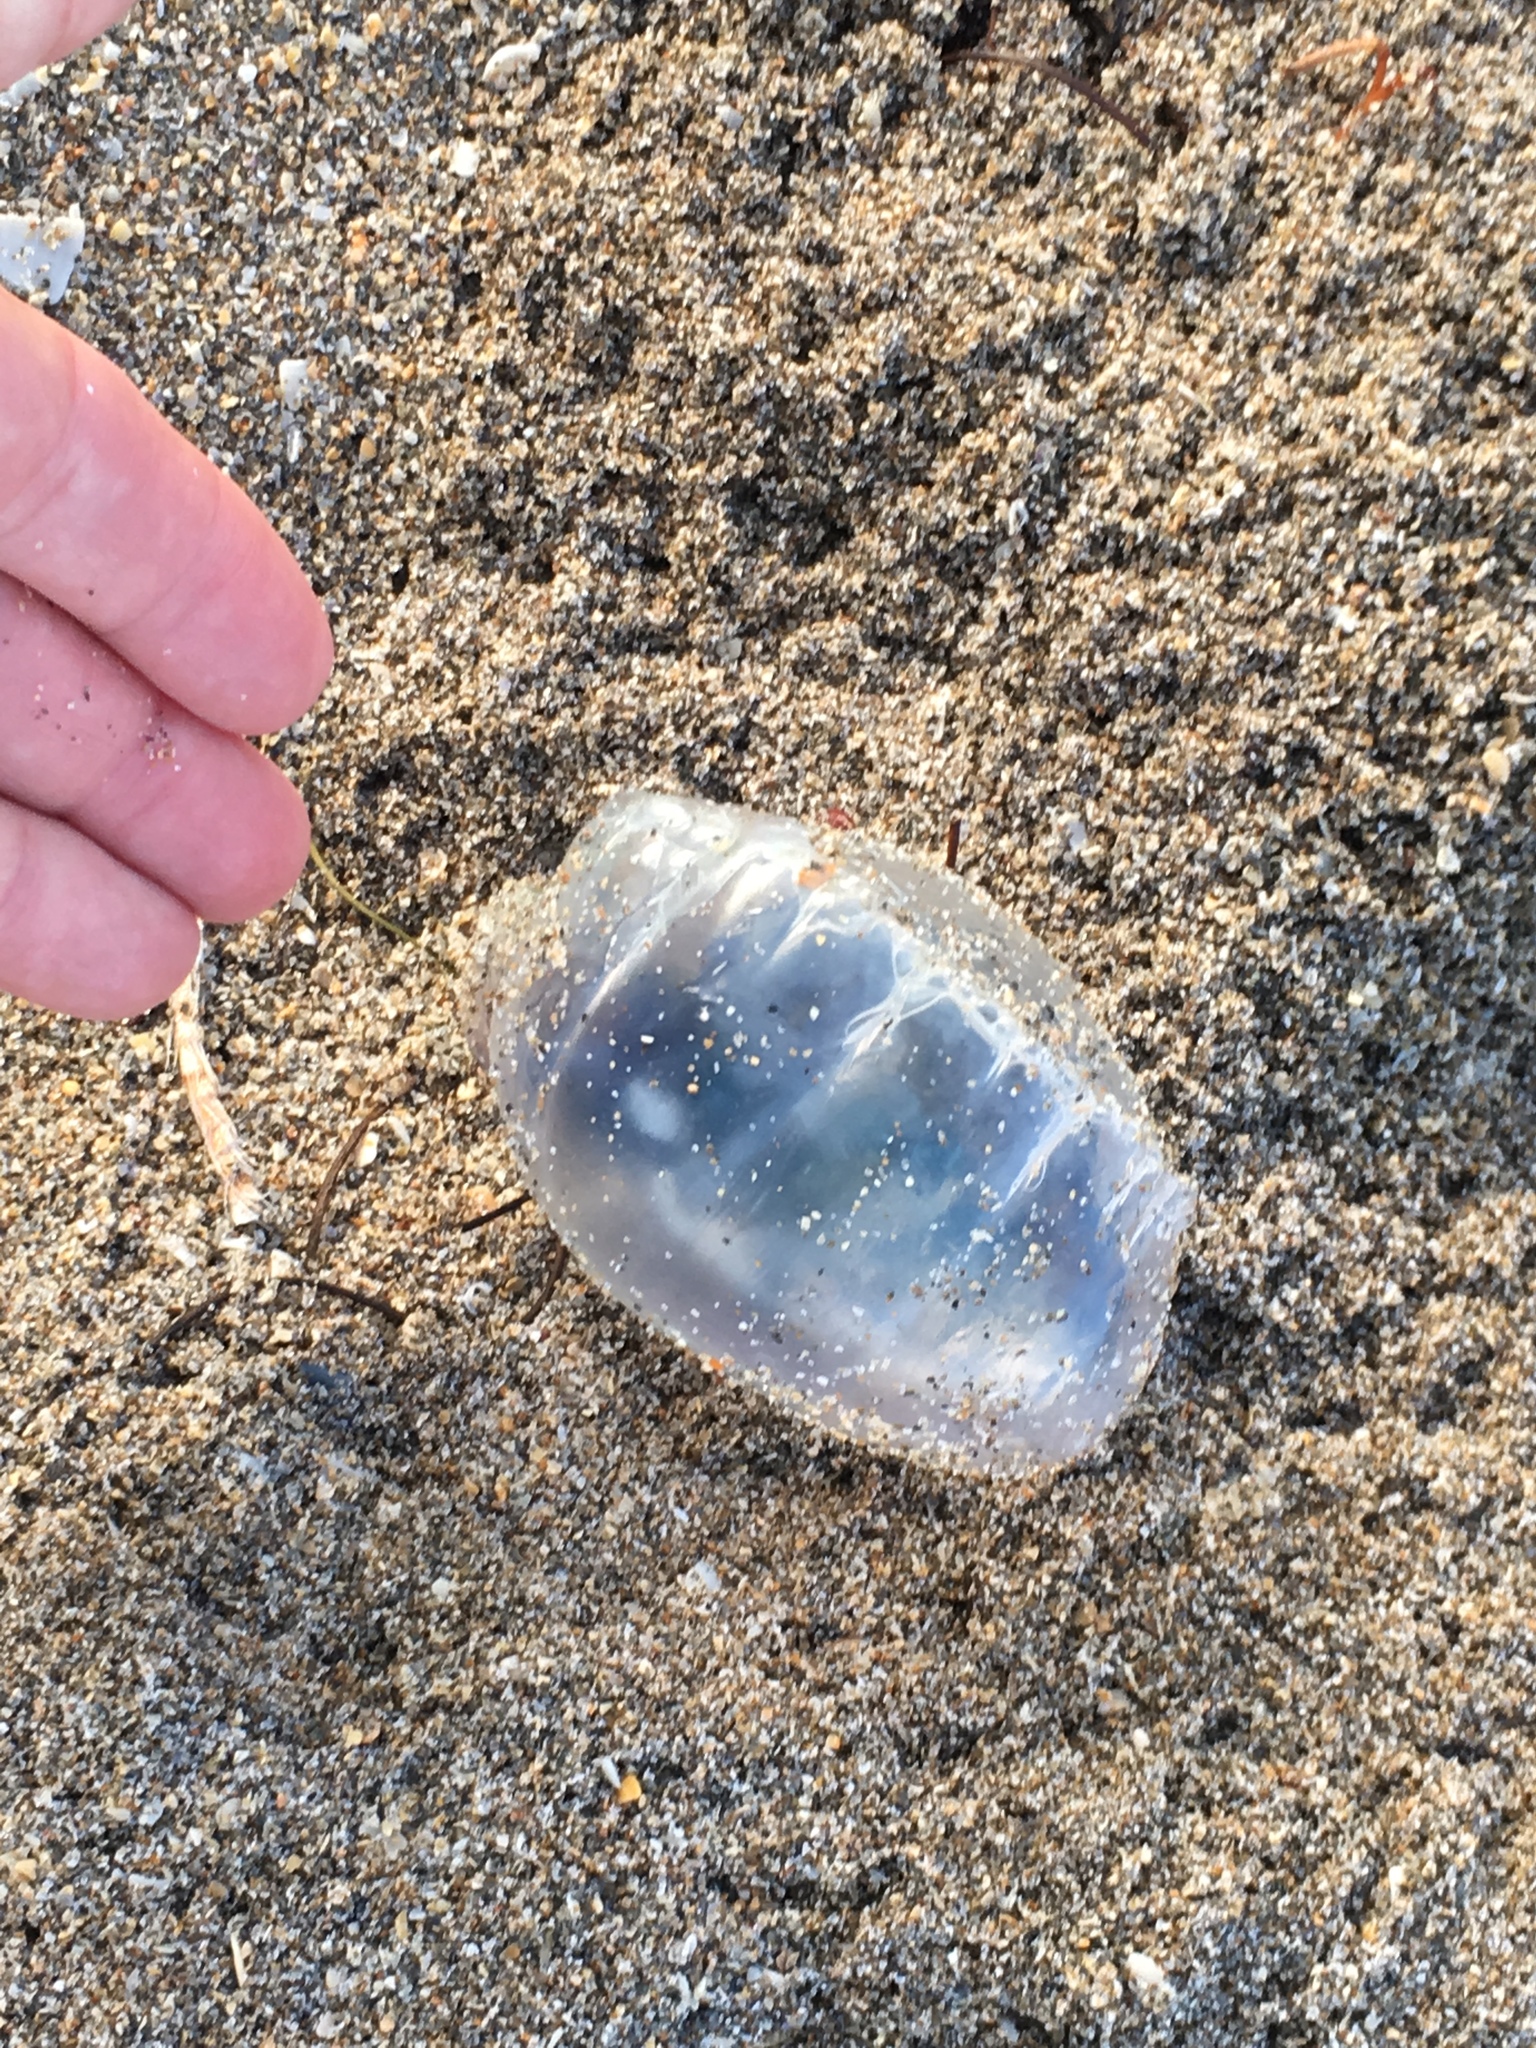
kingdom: Animalia
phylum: Cnidaria
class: Hydrozoa
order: Siphonophorae
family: Physaliidae
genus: Physalia
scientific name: Physalia physalis
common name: Portuguese man-of-war
